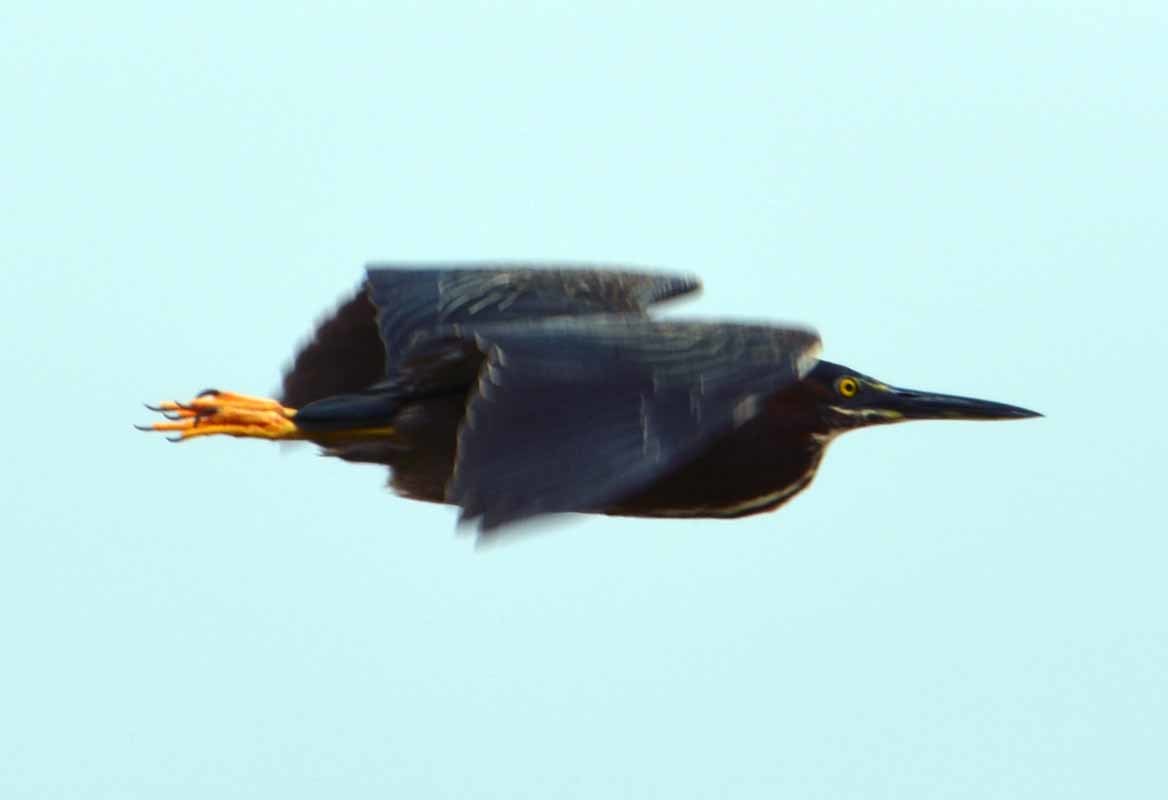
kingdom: Animalia
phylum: Chordata
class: Aves
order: Pelecaniformes
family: Ardeidae
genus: Butorides
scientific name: Butorides virescens
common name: Green heron
